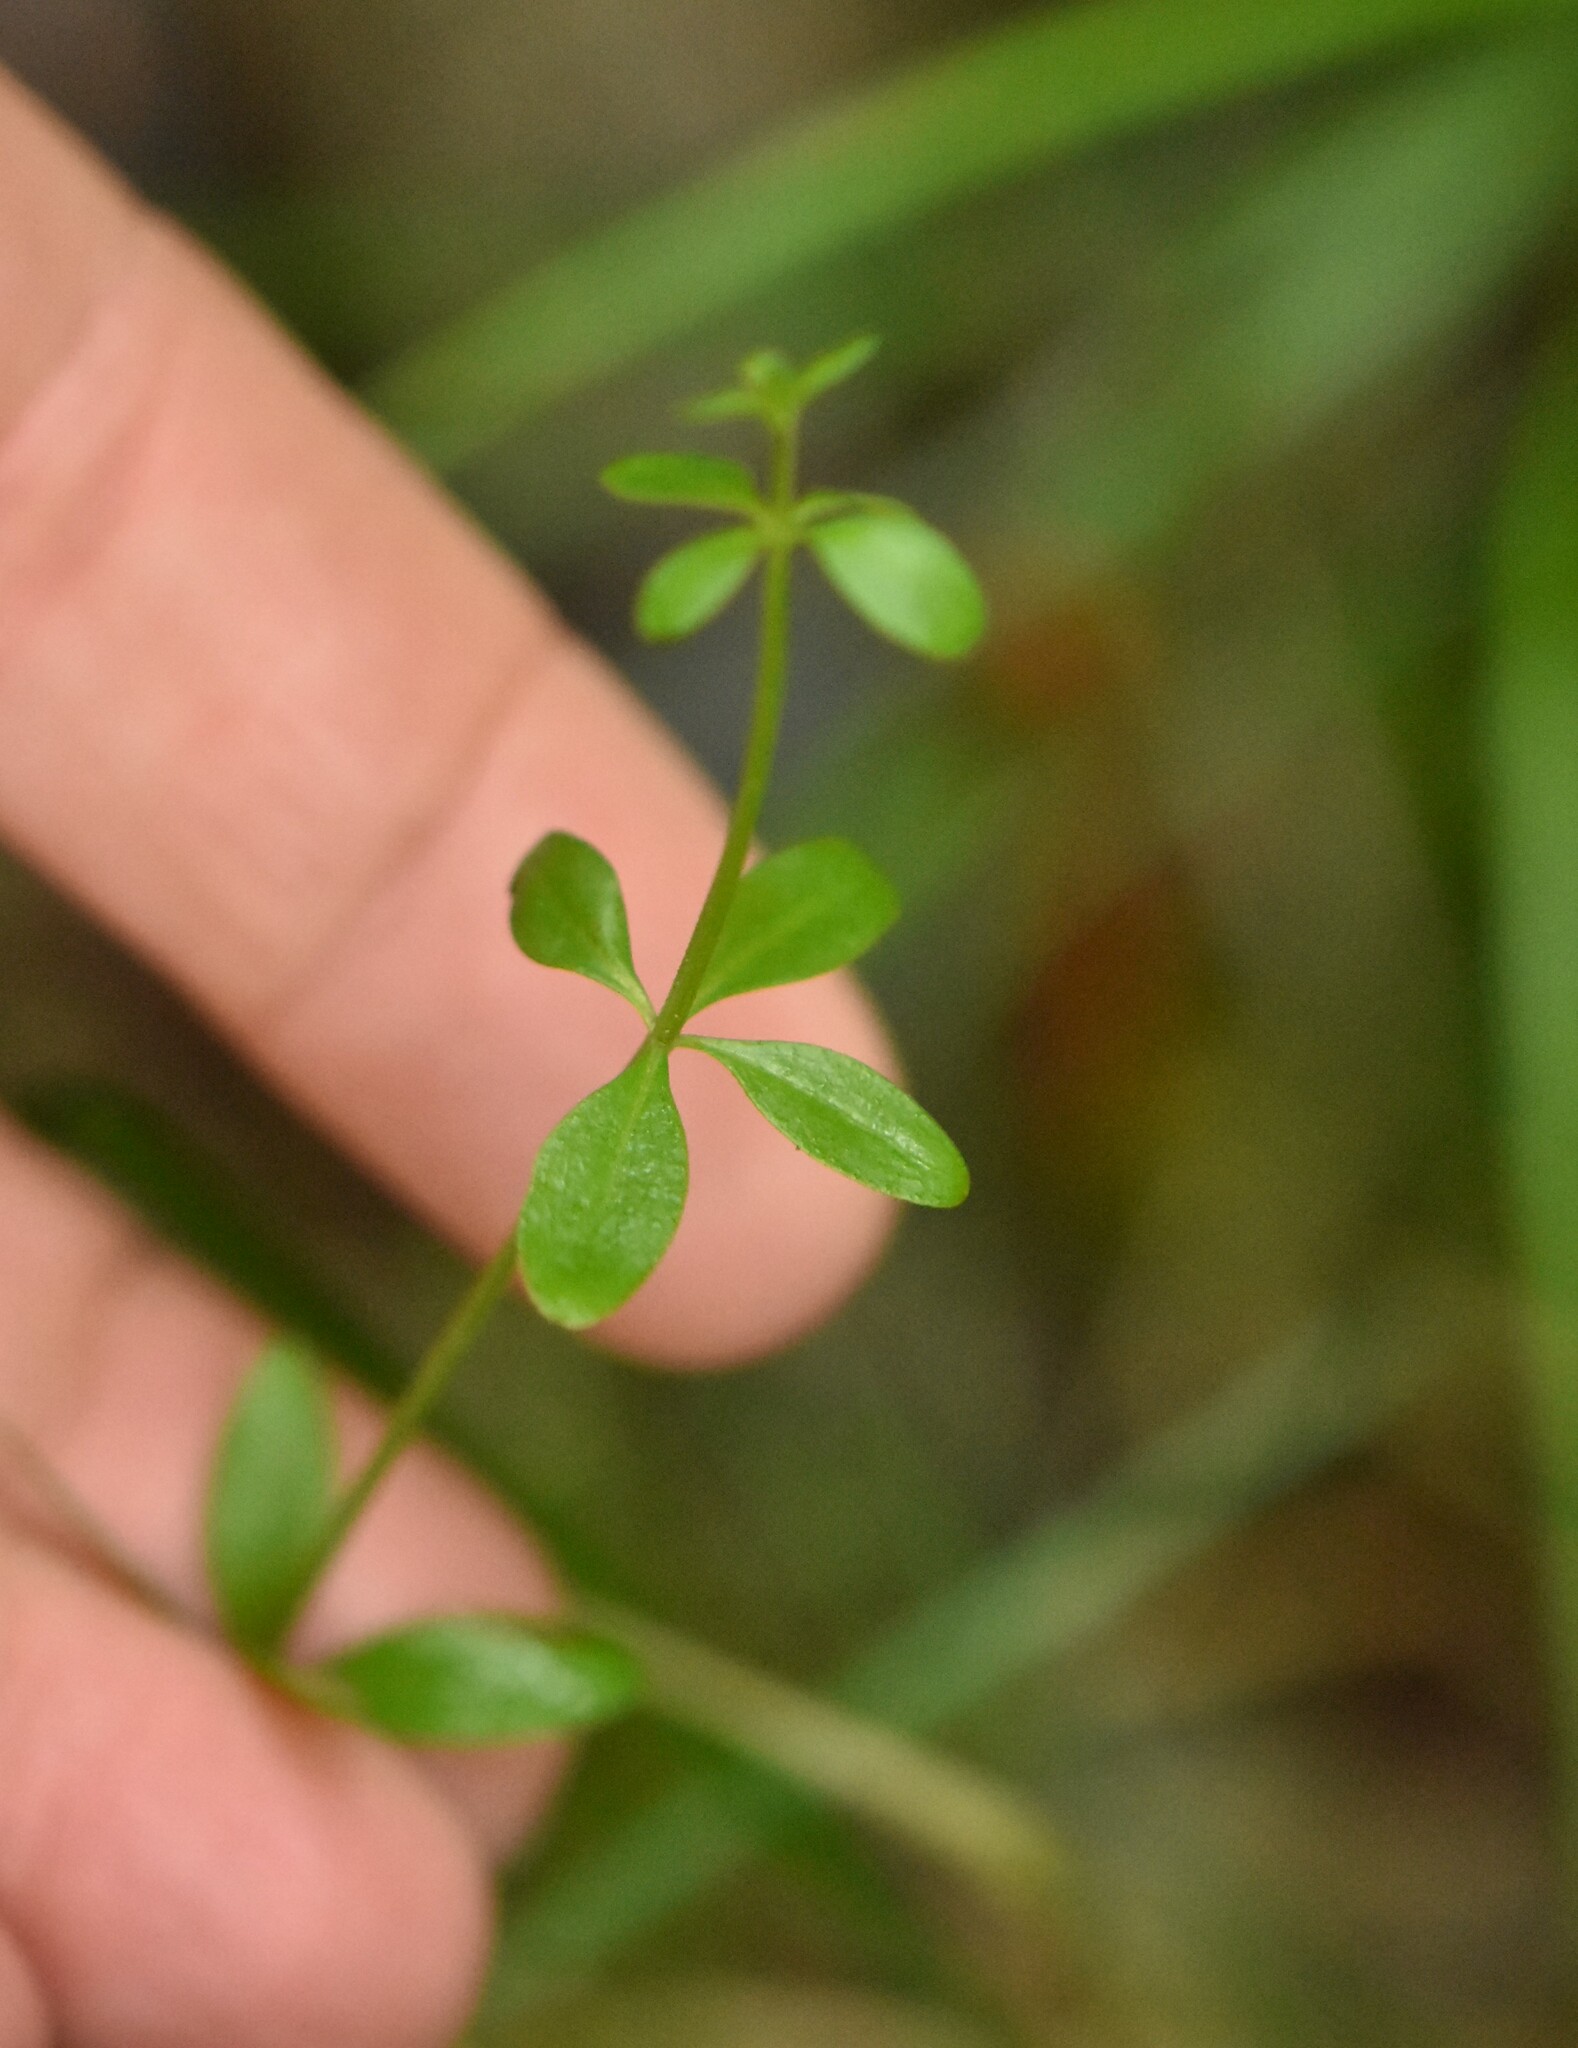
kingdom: Plantae
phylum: Tracheophyta
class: Magnoliopsida
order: Gentianales
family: Rubiaceae
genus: Galium
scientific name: Galium palustre
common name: Common marsh-bedstraw
